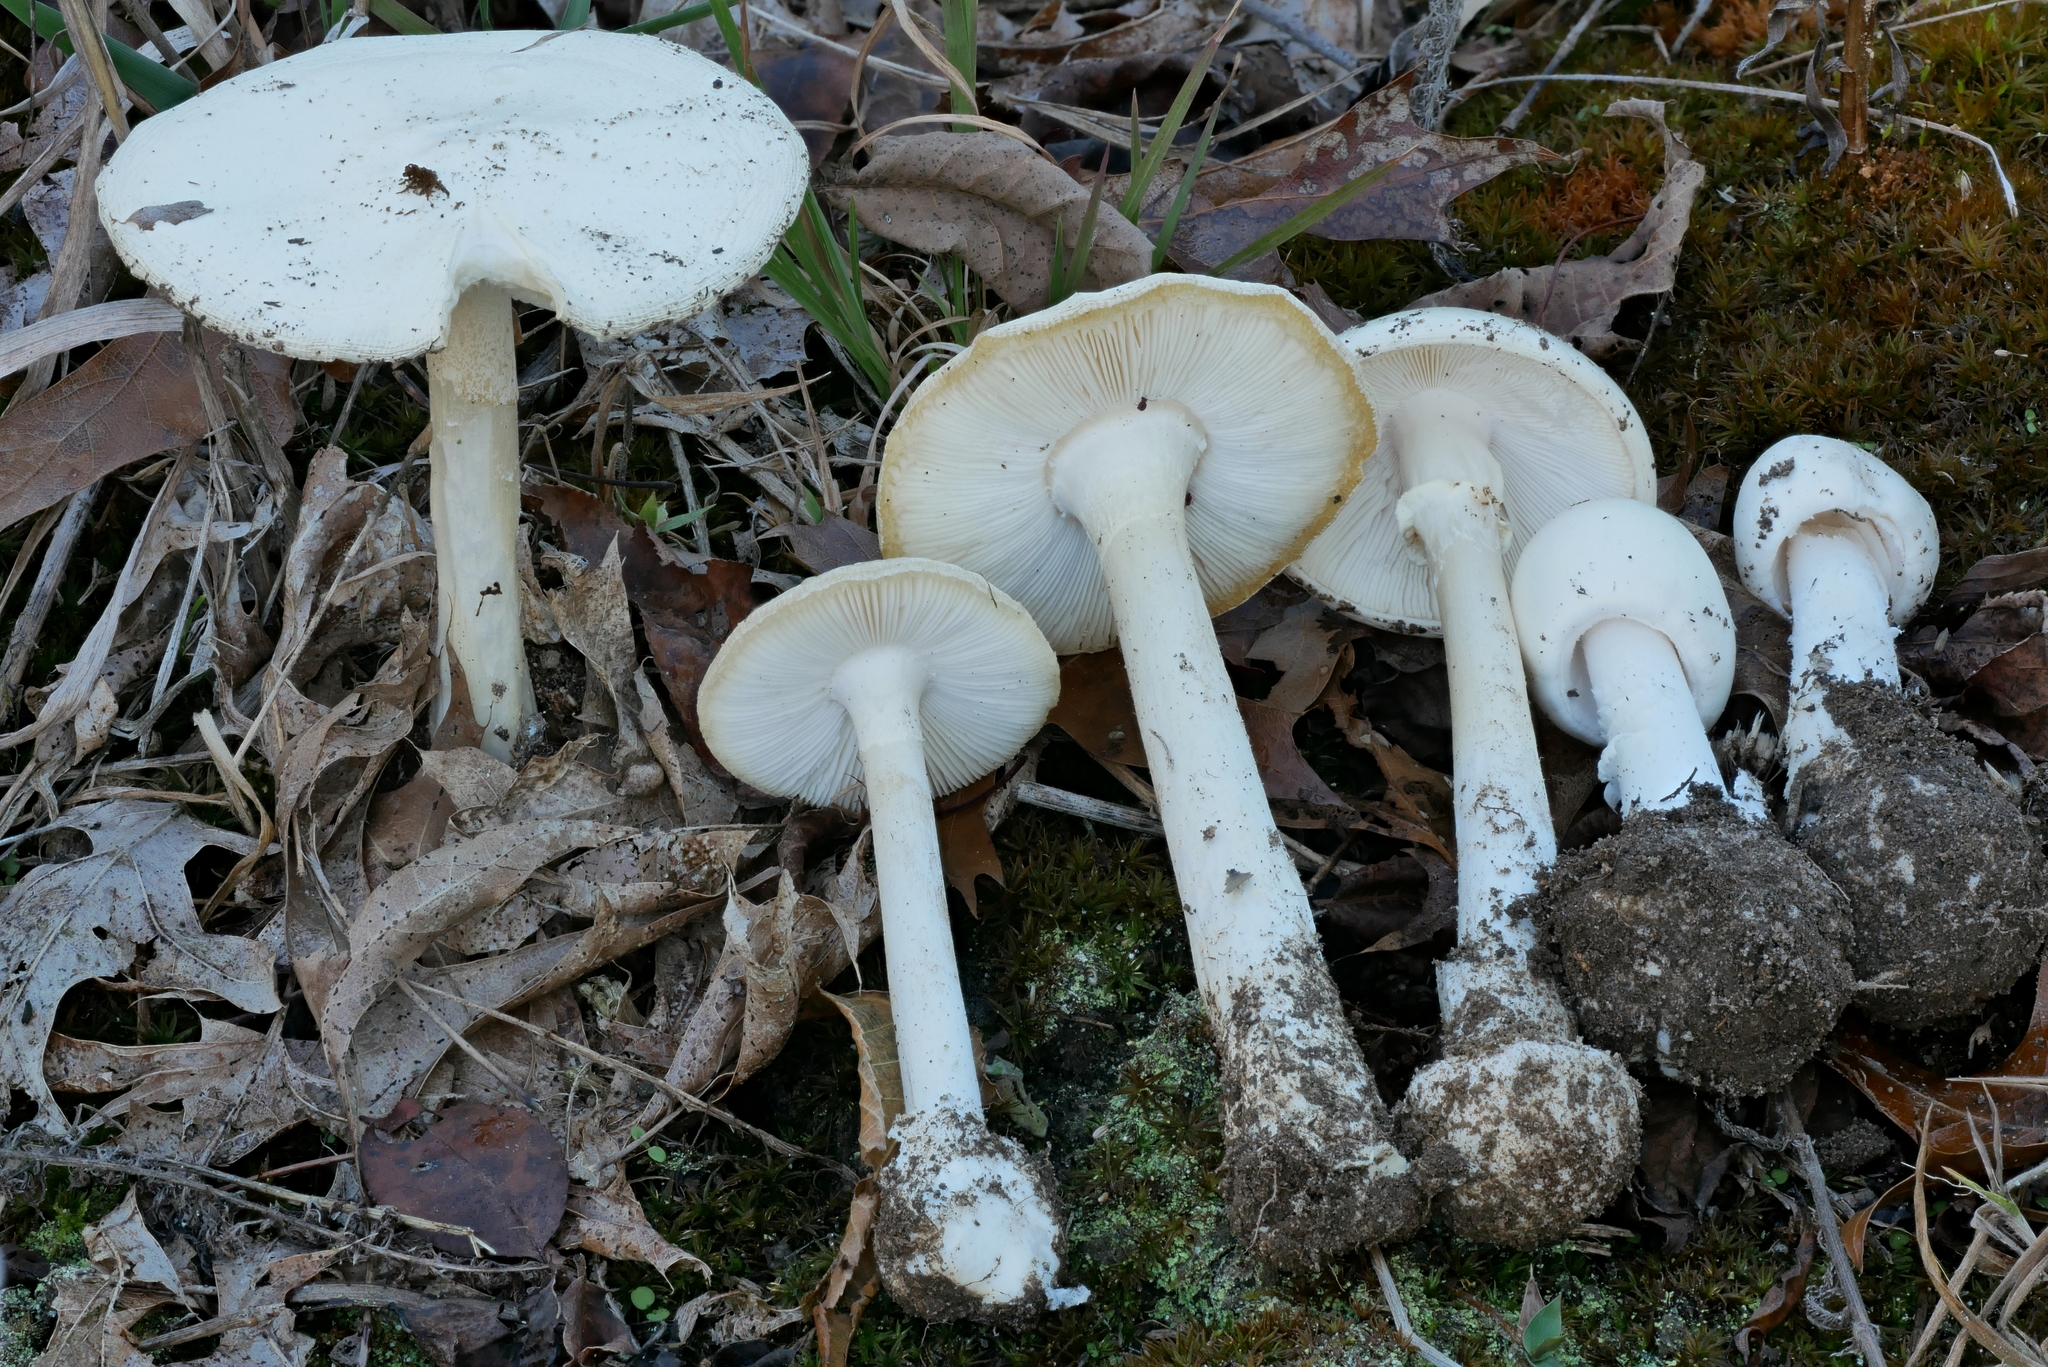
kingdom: Fungi
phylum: Basidiomycota
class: Agaricomycetes
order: Agaricales
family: Amanitaceae
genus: Amanita
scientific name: Amanita suballiacea
